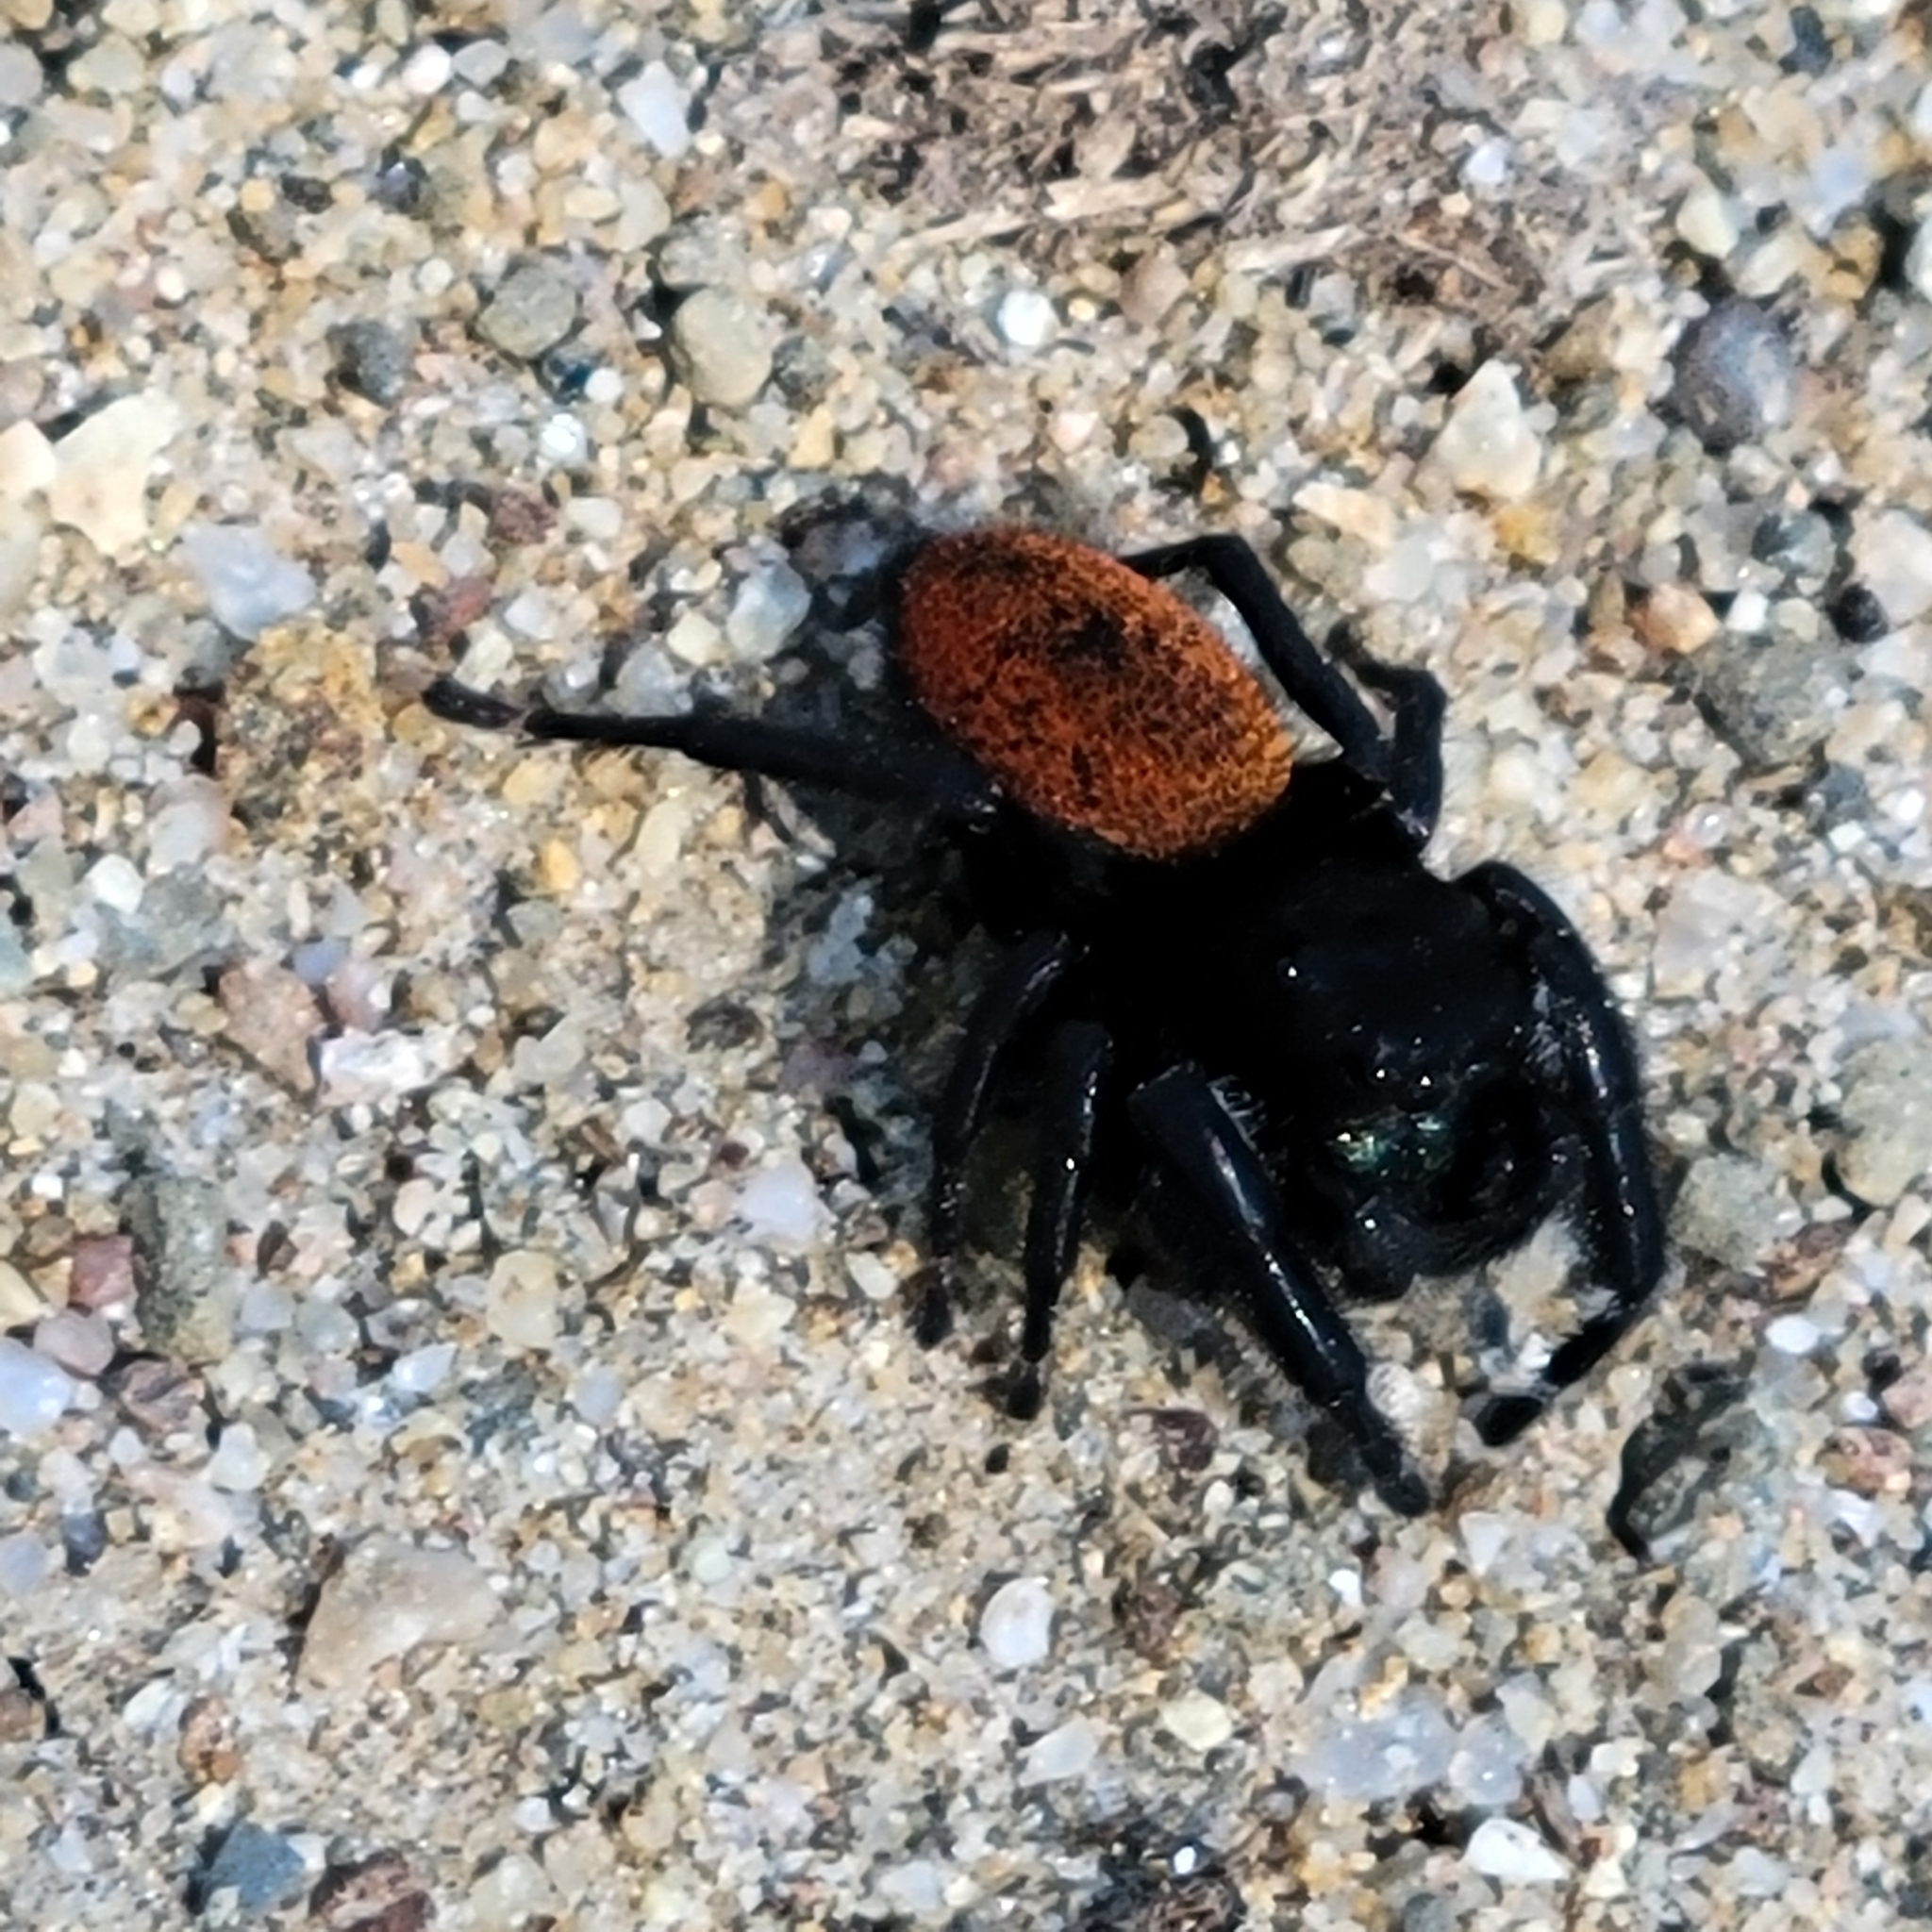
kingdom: Animalia
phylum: Arthropoda
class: Arachnida
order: Araneae
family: Salticidae
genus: Phidippus
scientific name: Phidippus johnsoni
